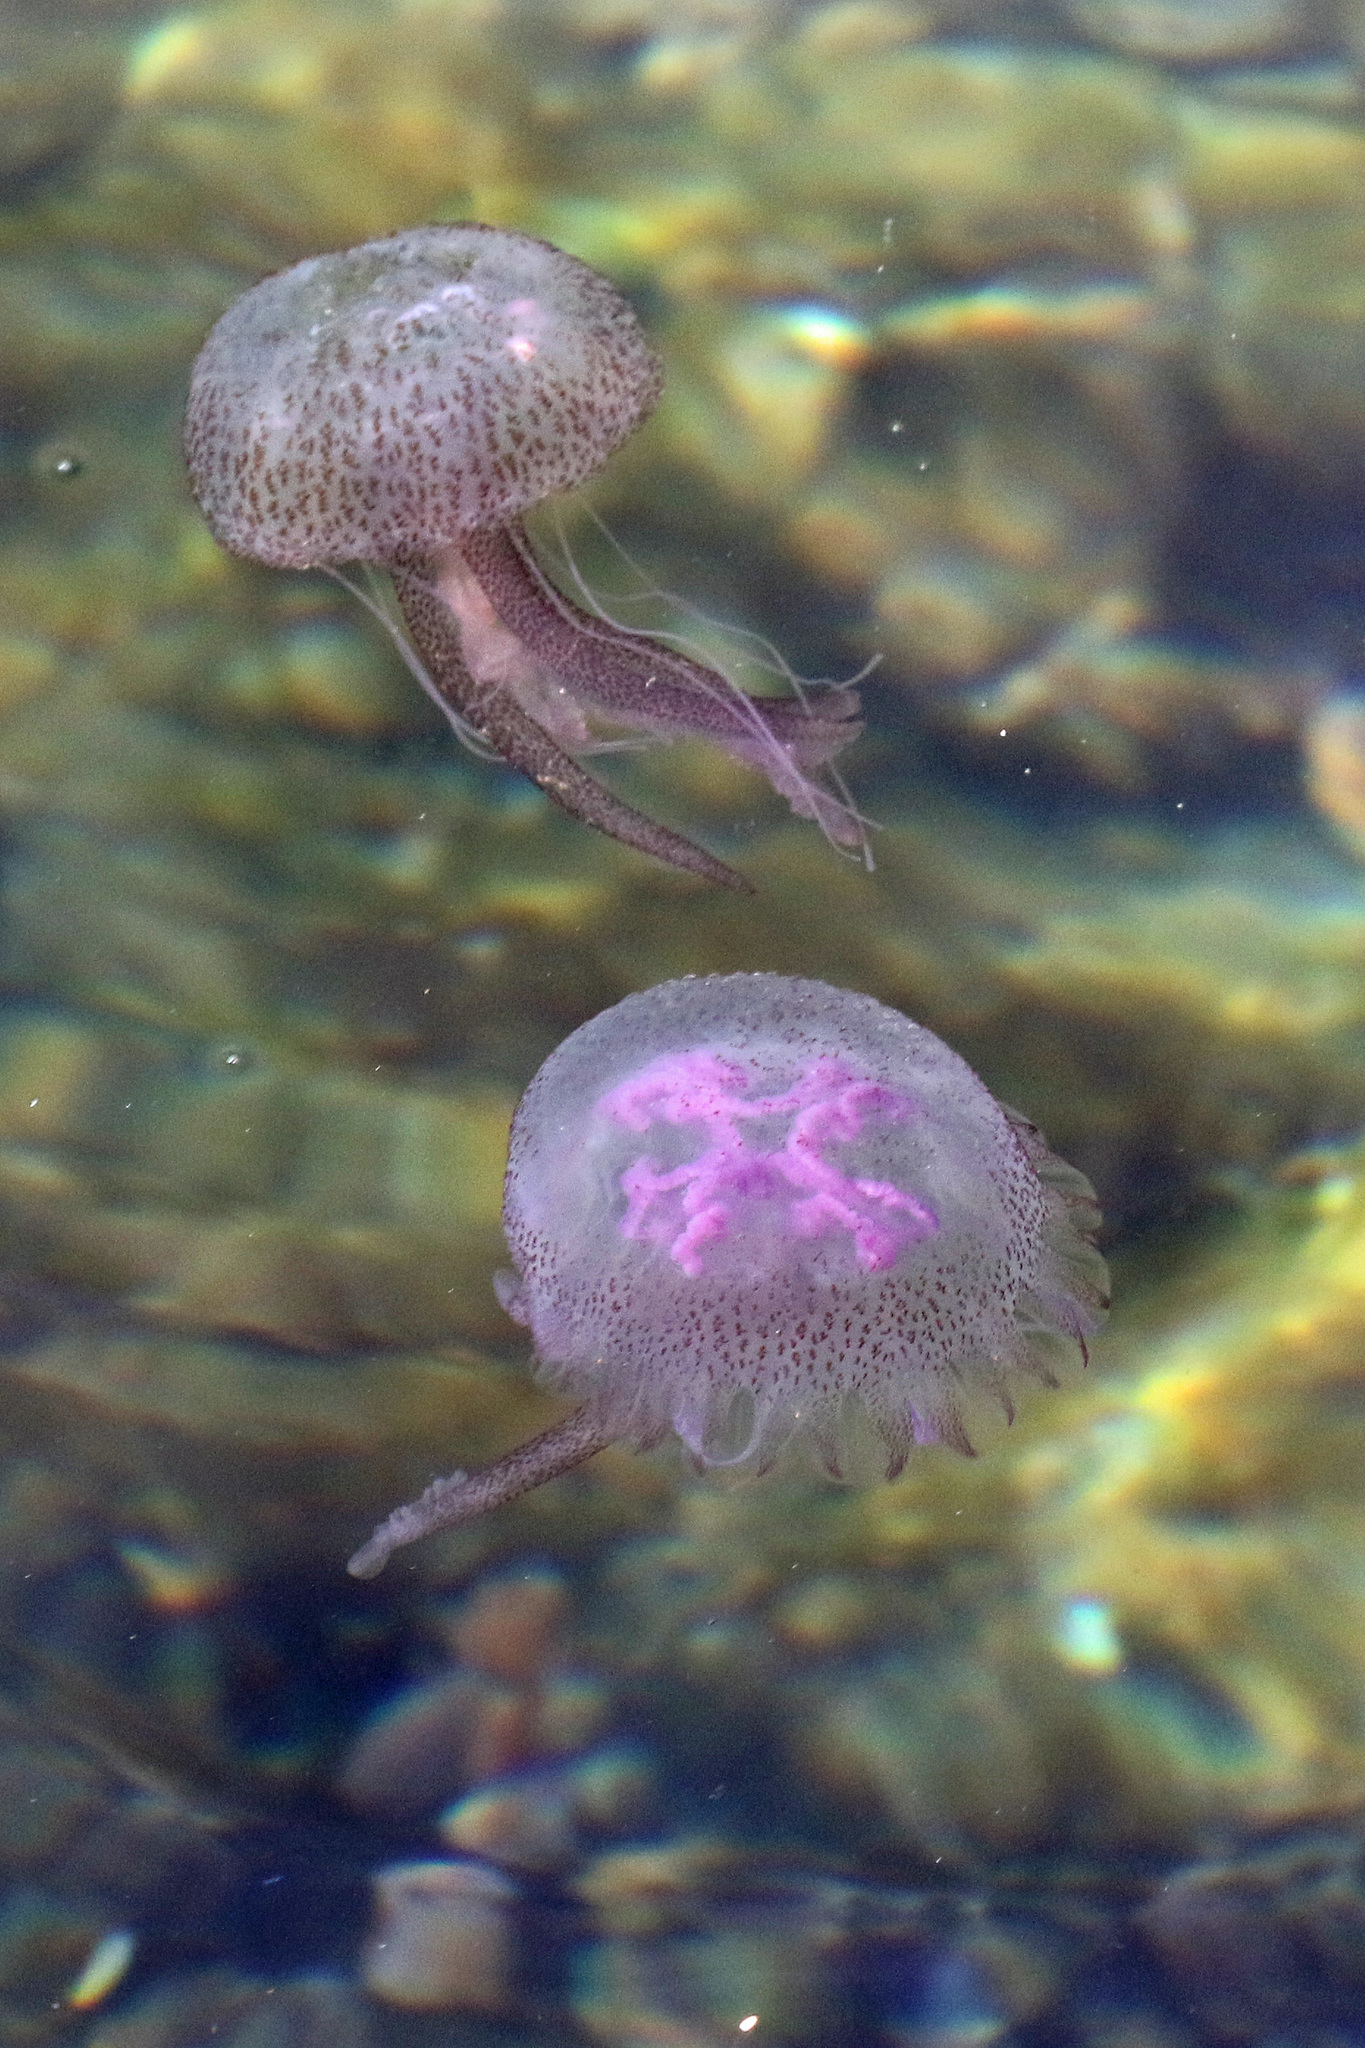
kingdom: Animalia
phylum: Cnidaria
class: Scyphozoa
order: Semaeostomeae
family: Pelagiidae
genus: Pelagia
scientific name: Pelagia noctiluca
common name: Mauve stinger
